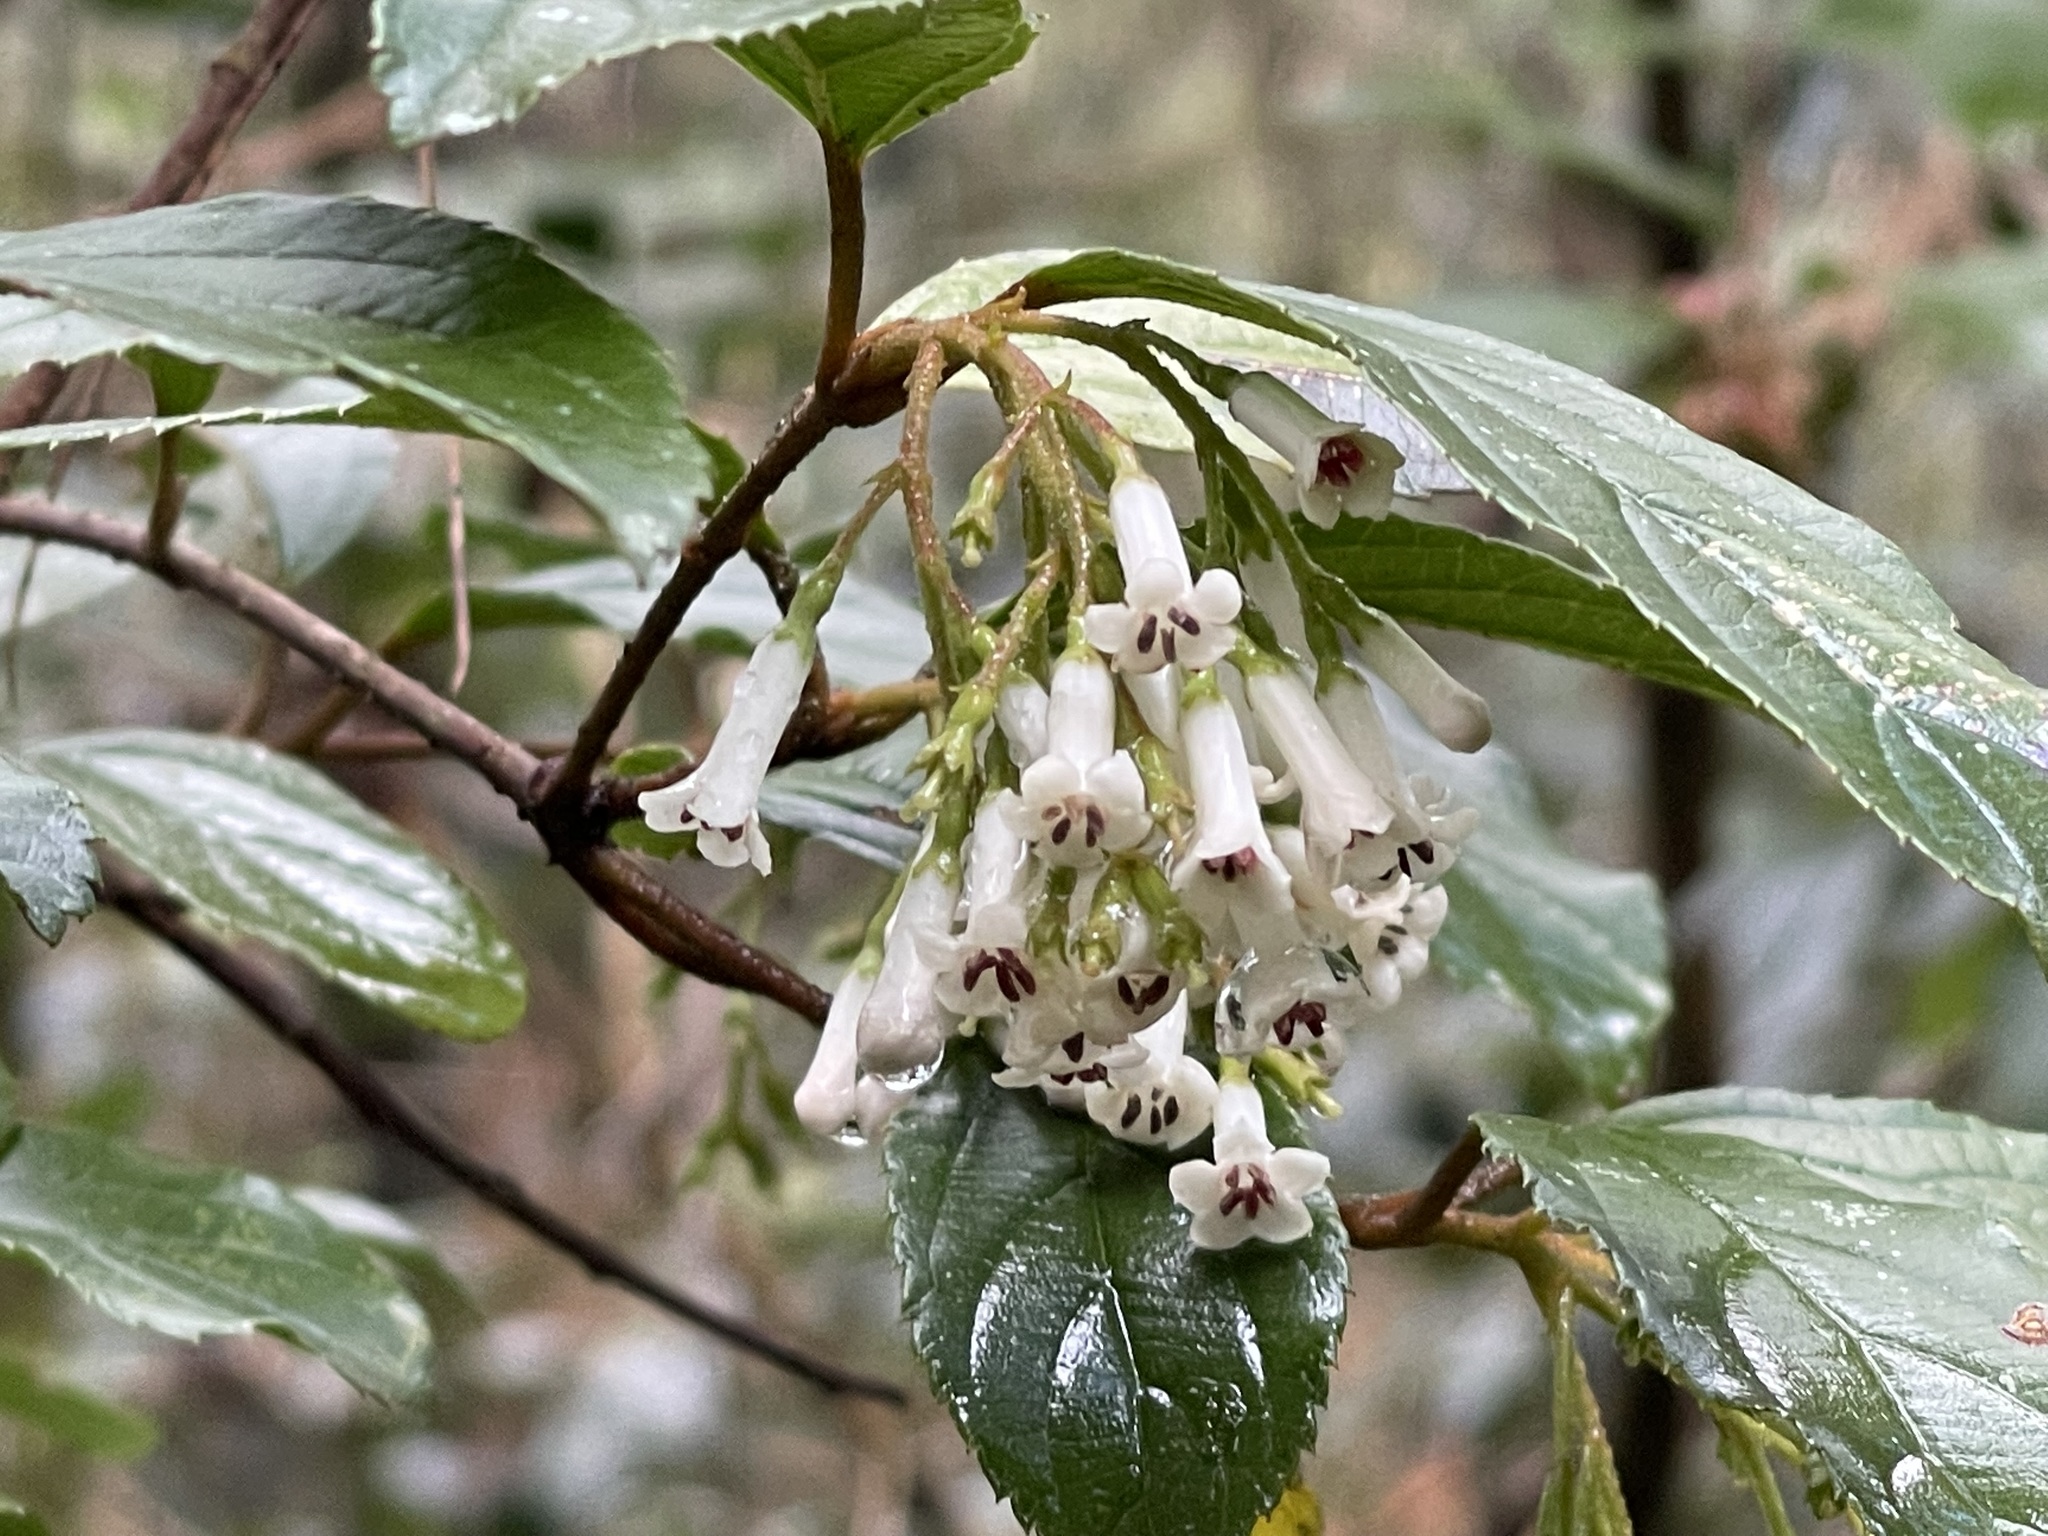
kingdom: Plantae
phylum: Tracheophyta
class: Magnoliopsida
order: Dipsacales
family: Viburnaceae
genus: Viburnum
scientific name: Viburnum taitoense
